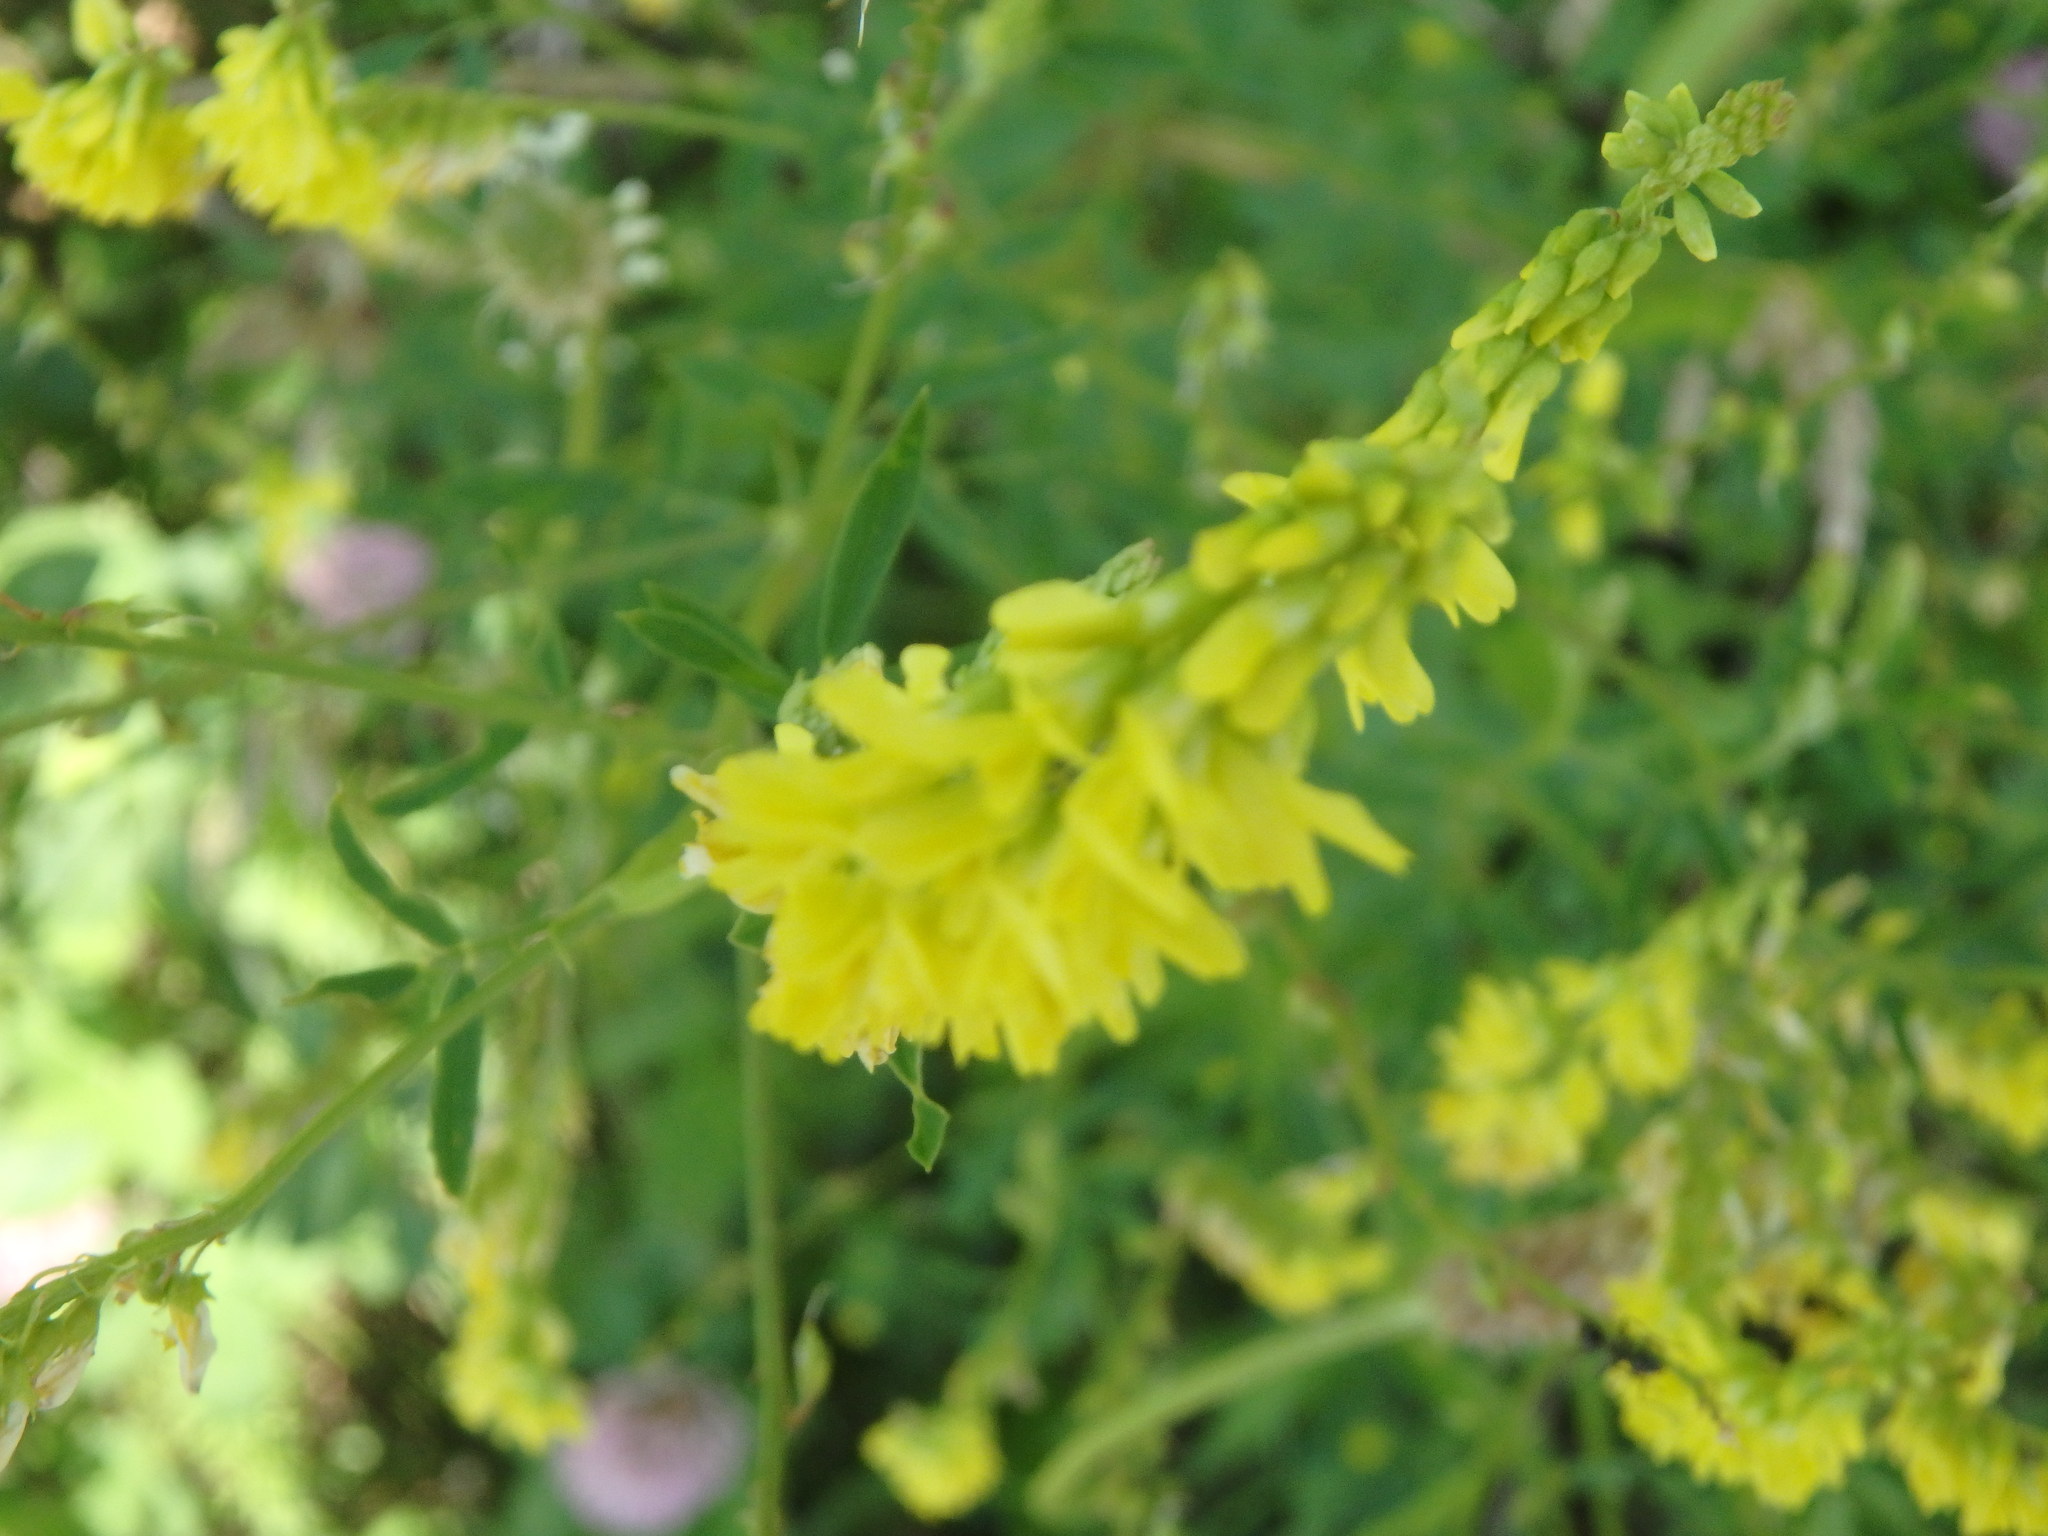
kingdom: Plantae
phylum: Tracheophyta
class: Magnoliopsida
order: Fabales
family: Fabaceae
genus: Melilotus
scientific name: Melilotus officinalis
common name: Sweetclover
